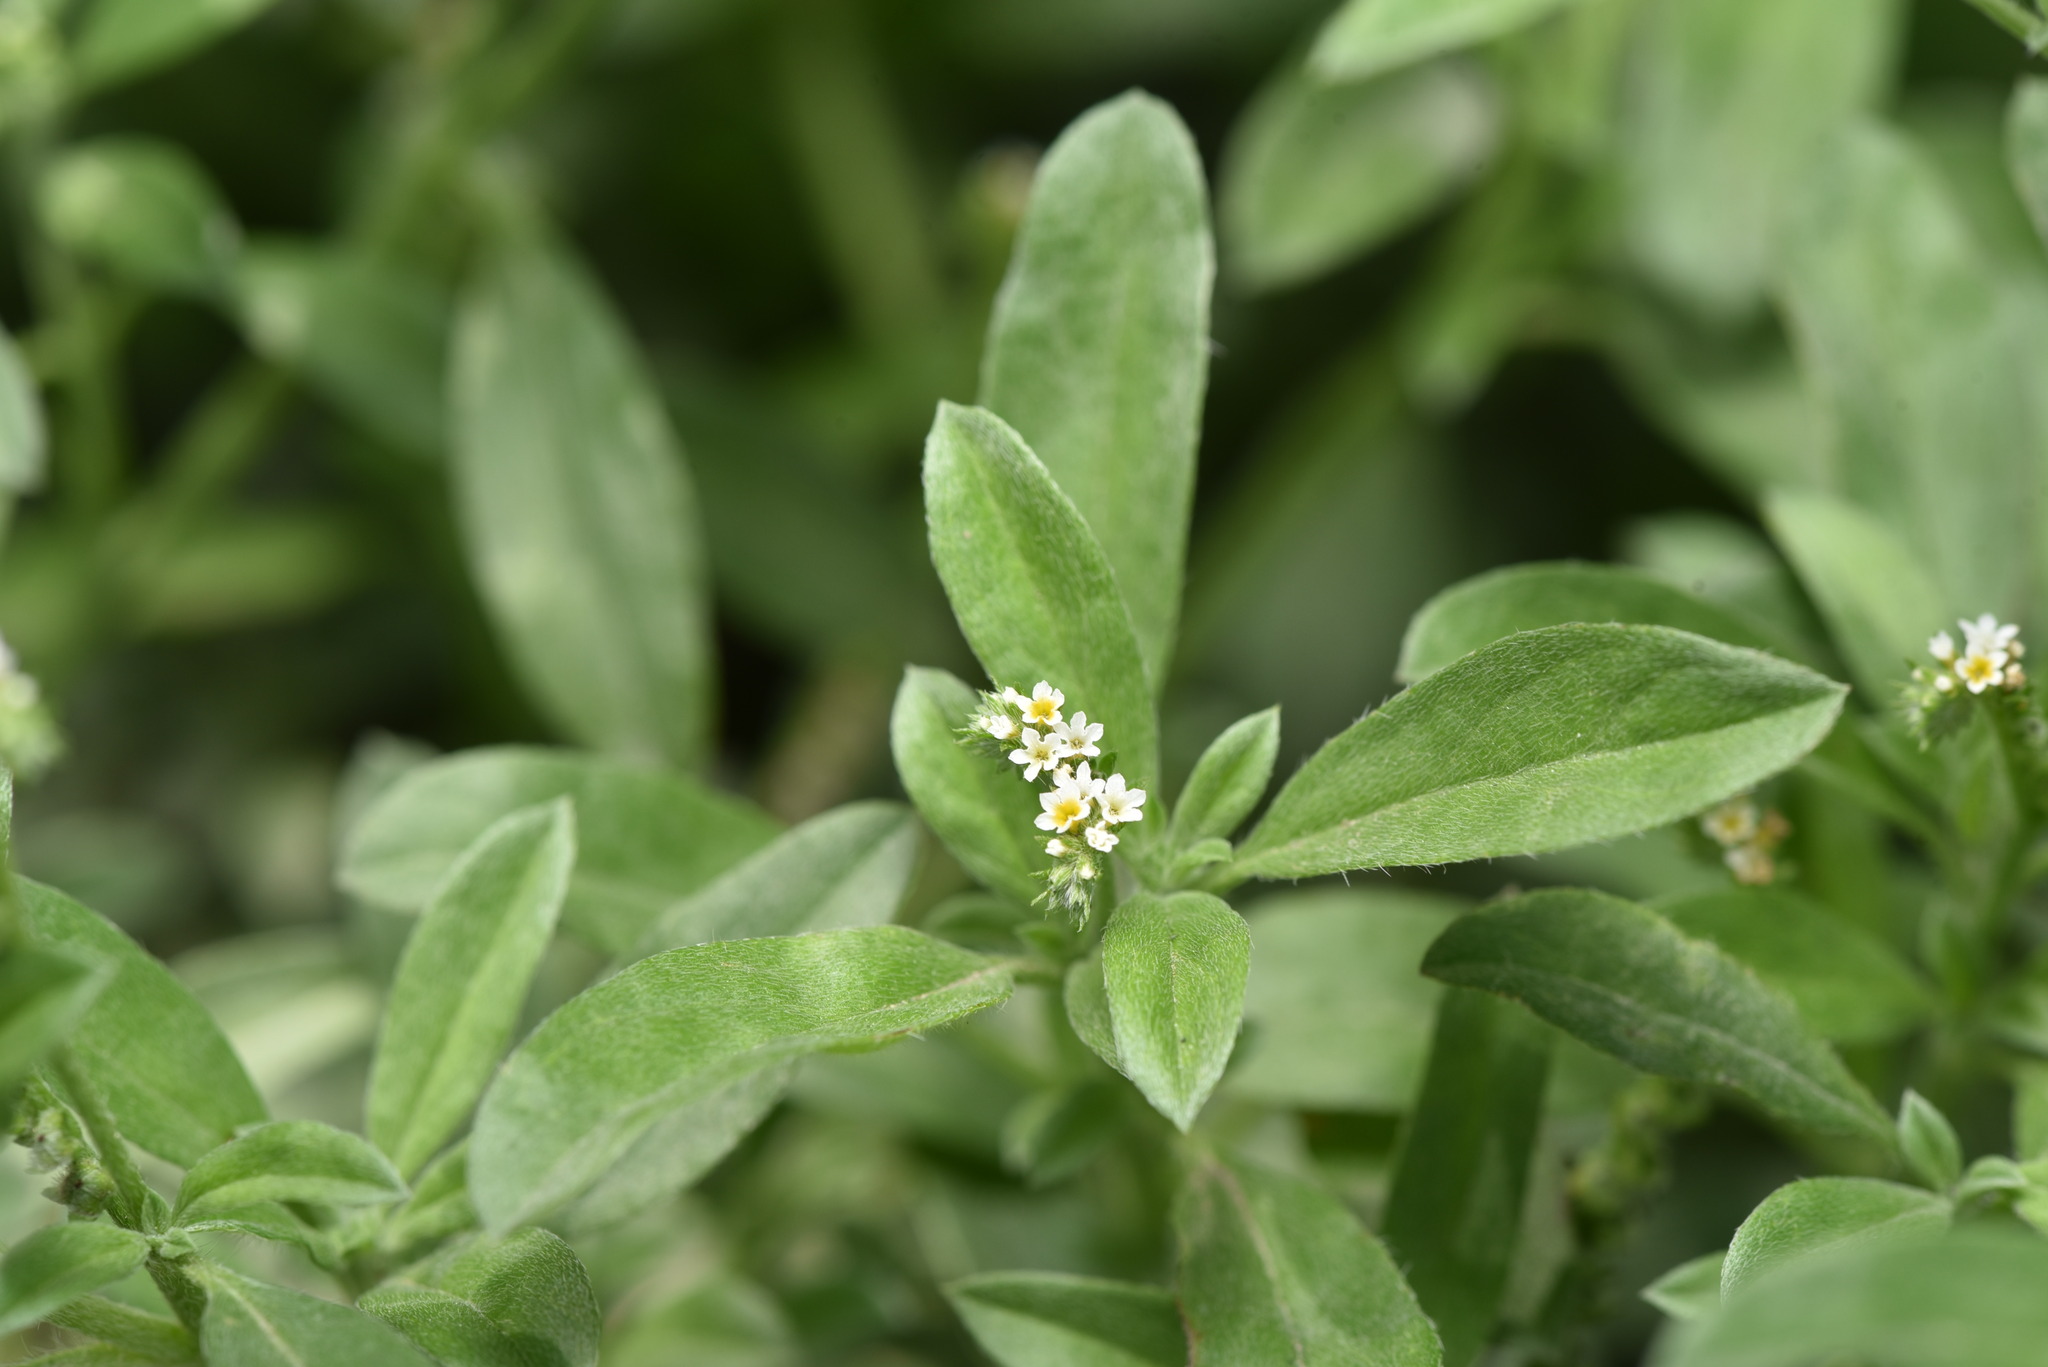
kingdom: Plantae
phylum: Tracheophyta
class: Magnoliopsida
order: Boraginales
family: Heliotropiaceae
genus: Euploca
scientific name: Euploca procumbens
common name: Fourspike heliotrope
